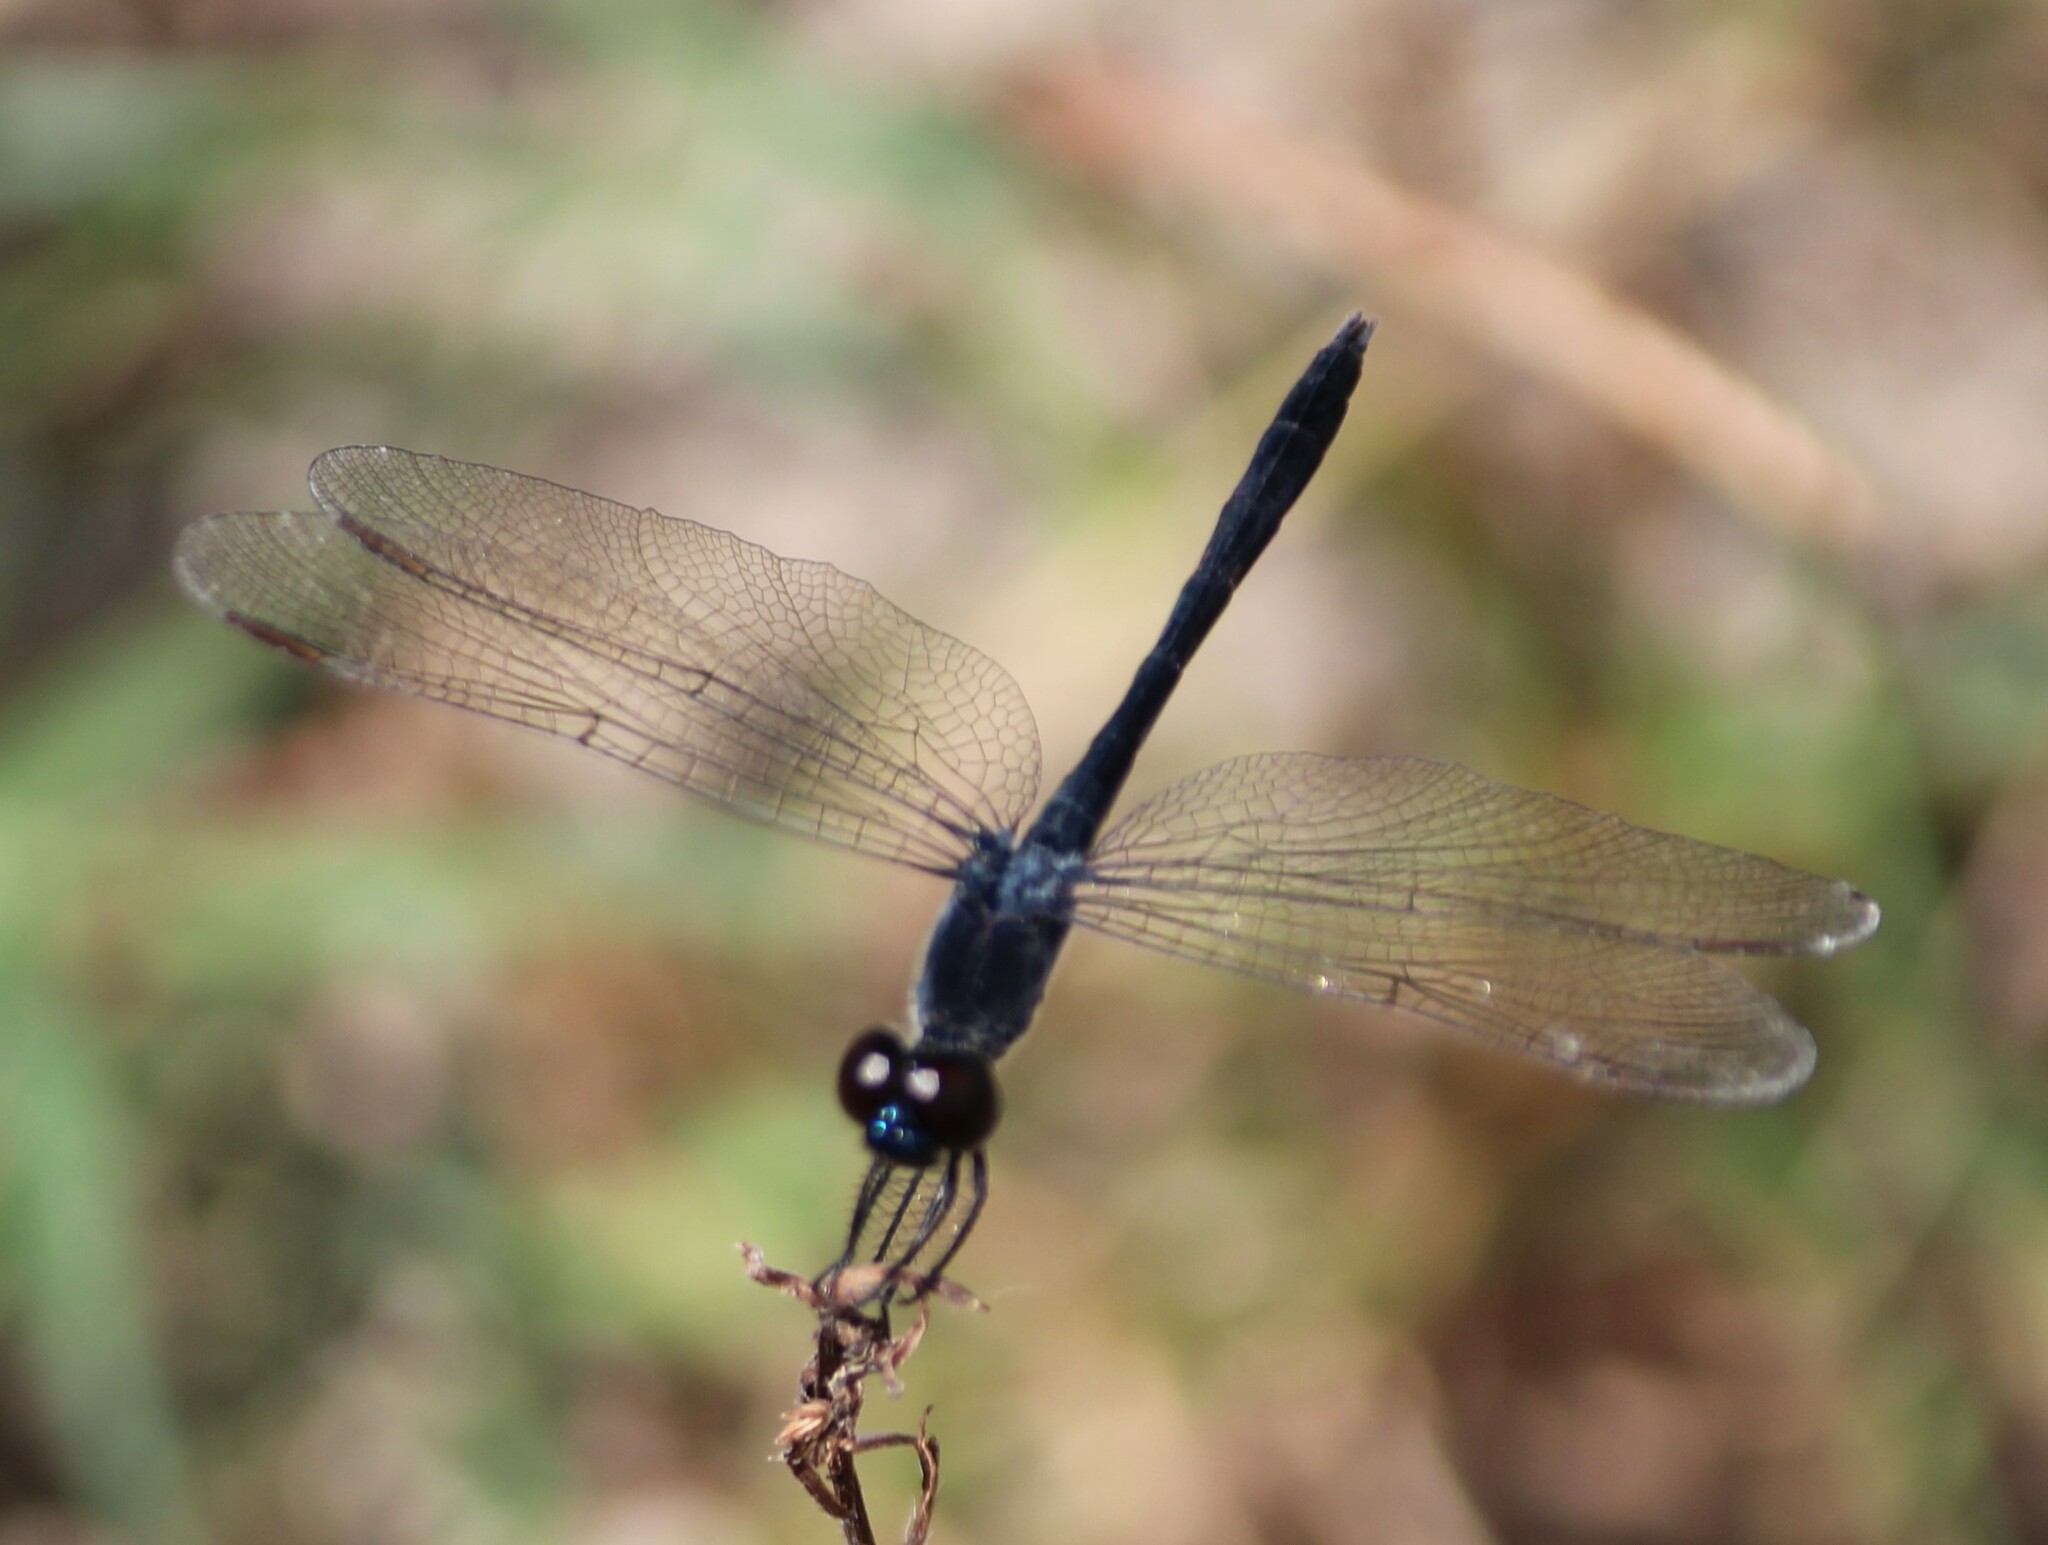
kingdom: Animalia
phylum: Arthropoda
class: Insecta
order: Odonata
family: Libellulidae
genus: Erythrodiplax
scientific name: Erythrodiplax berenice
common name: Seaside dragonlet
